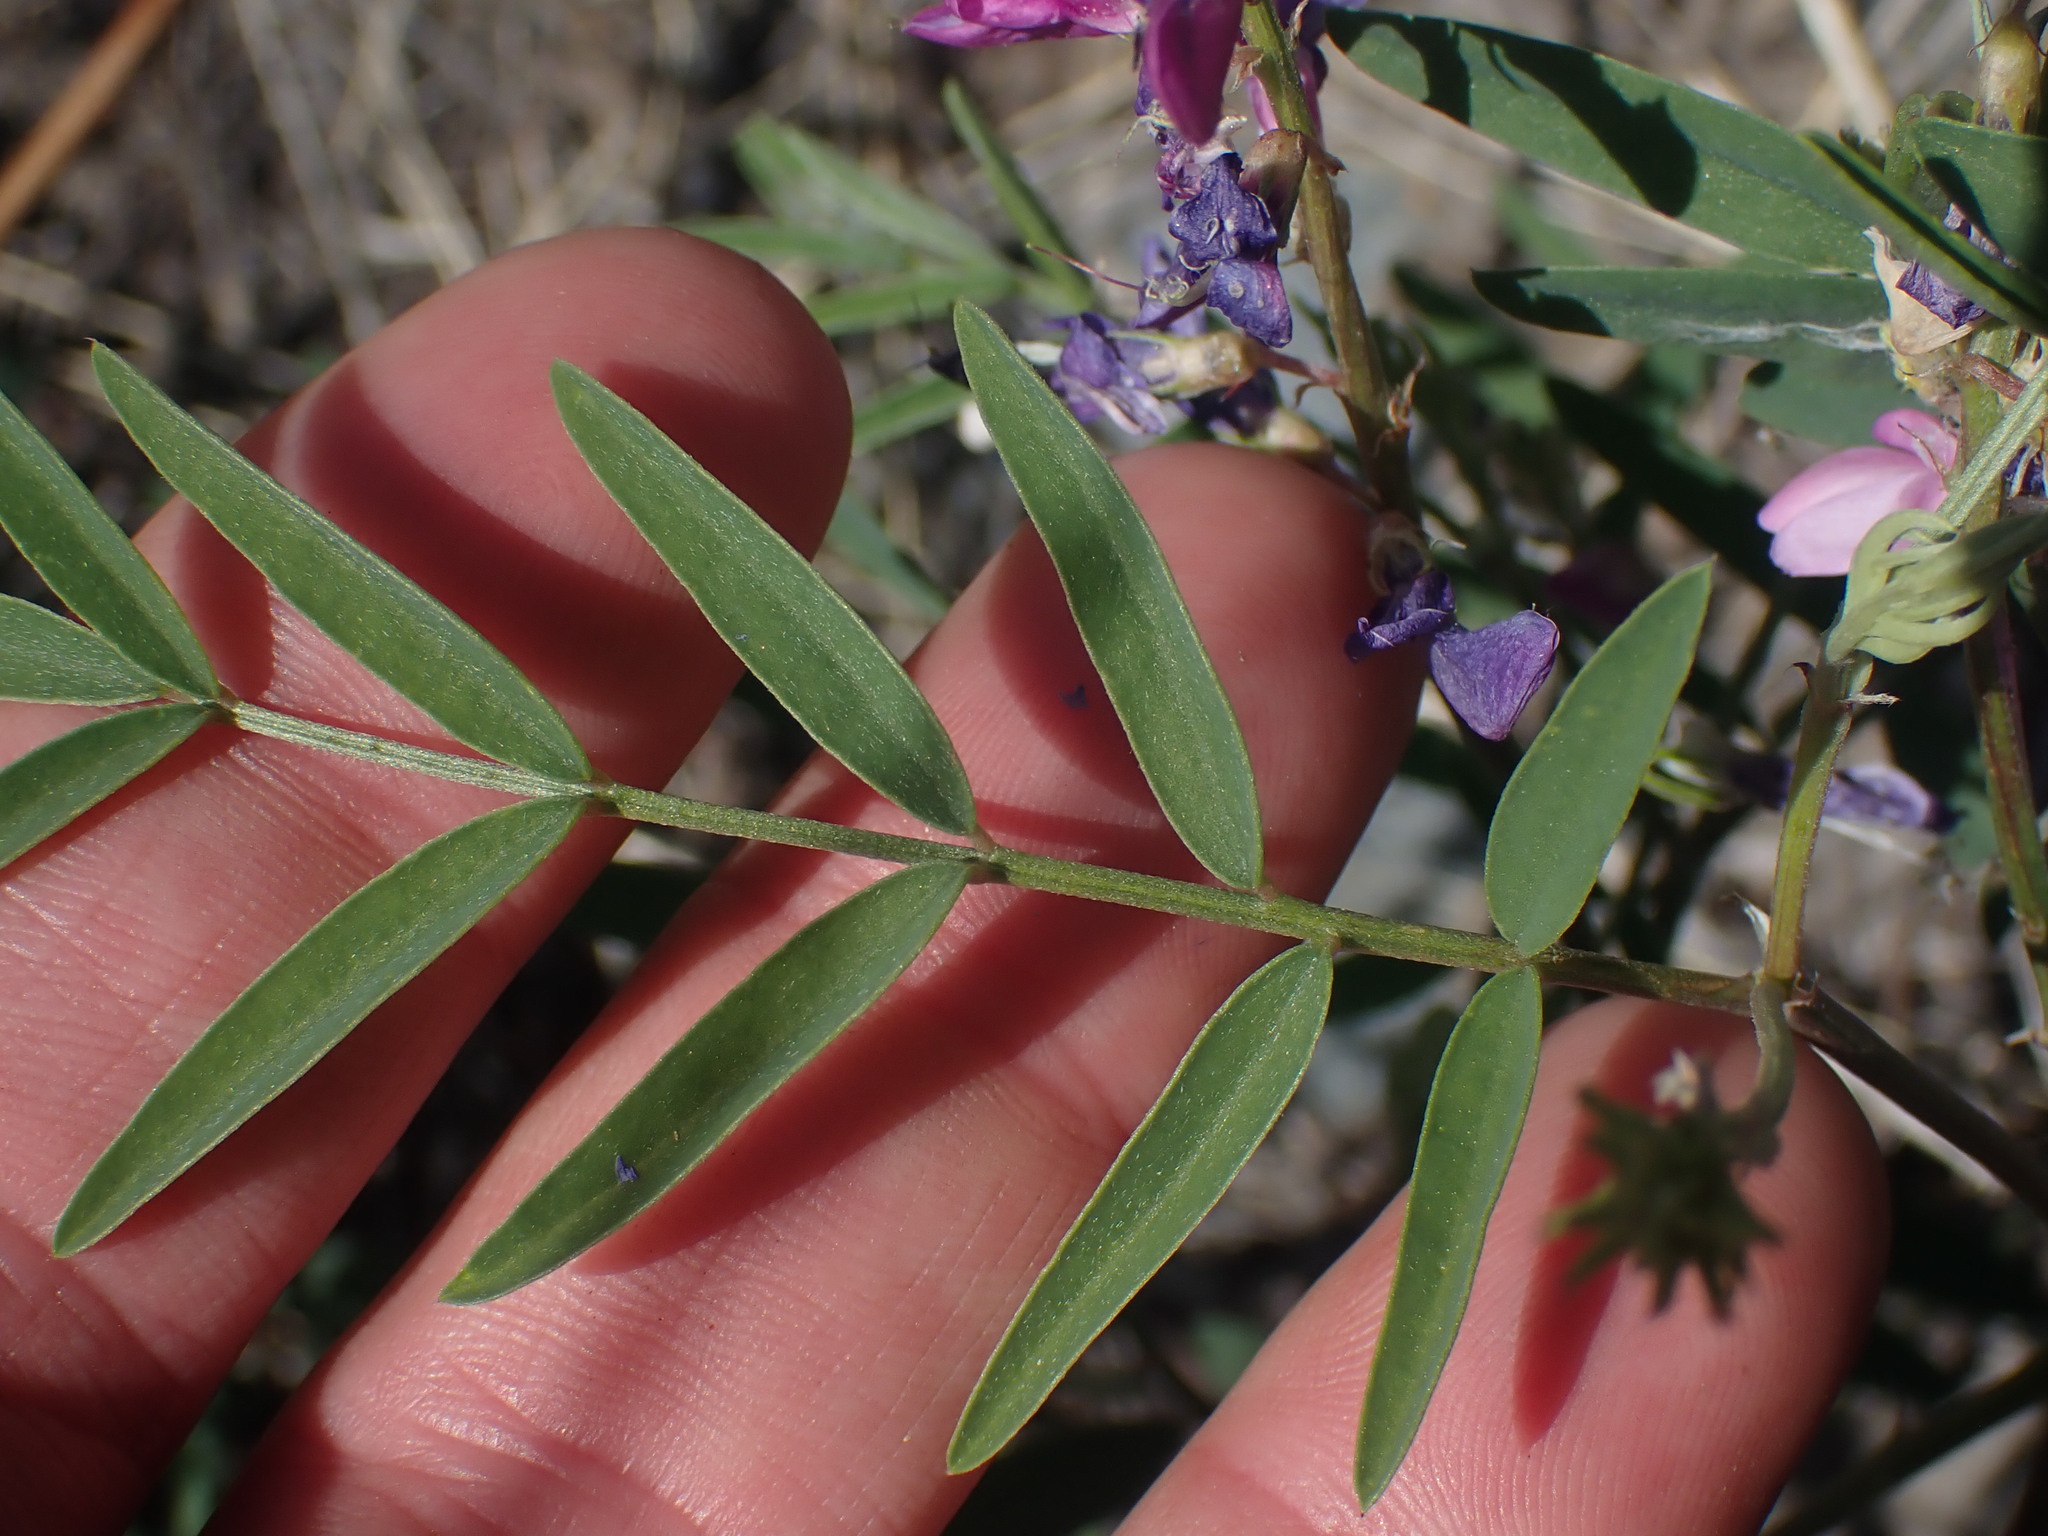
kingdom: Plantae
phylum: Tracheophyta
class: Magnoliopsida
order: Fabales
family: Fabaceae
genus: Hedysarum
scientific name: Hedysarum boreale
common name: Northern sweet-vetch
